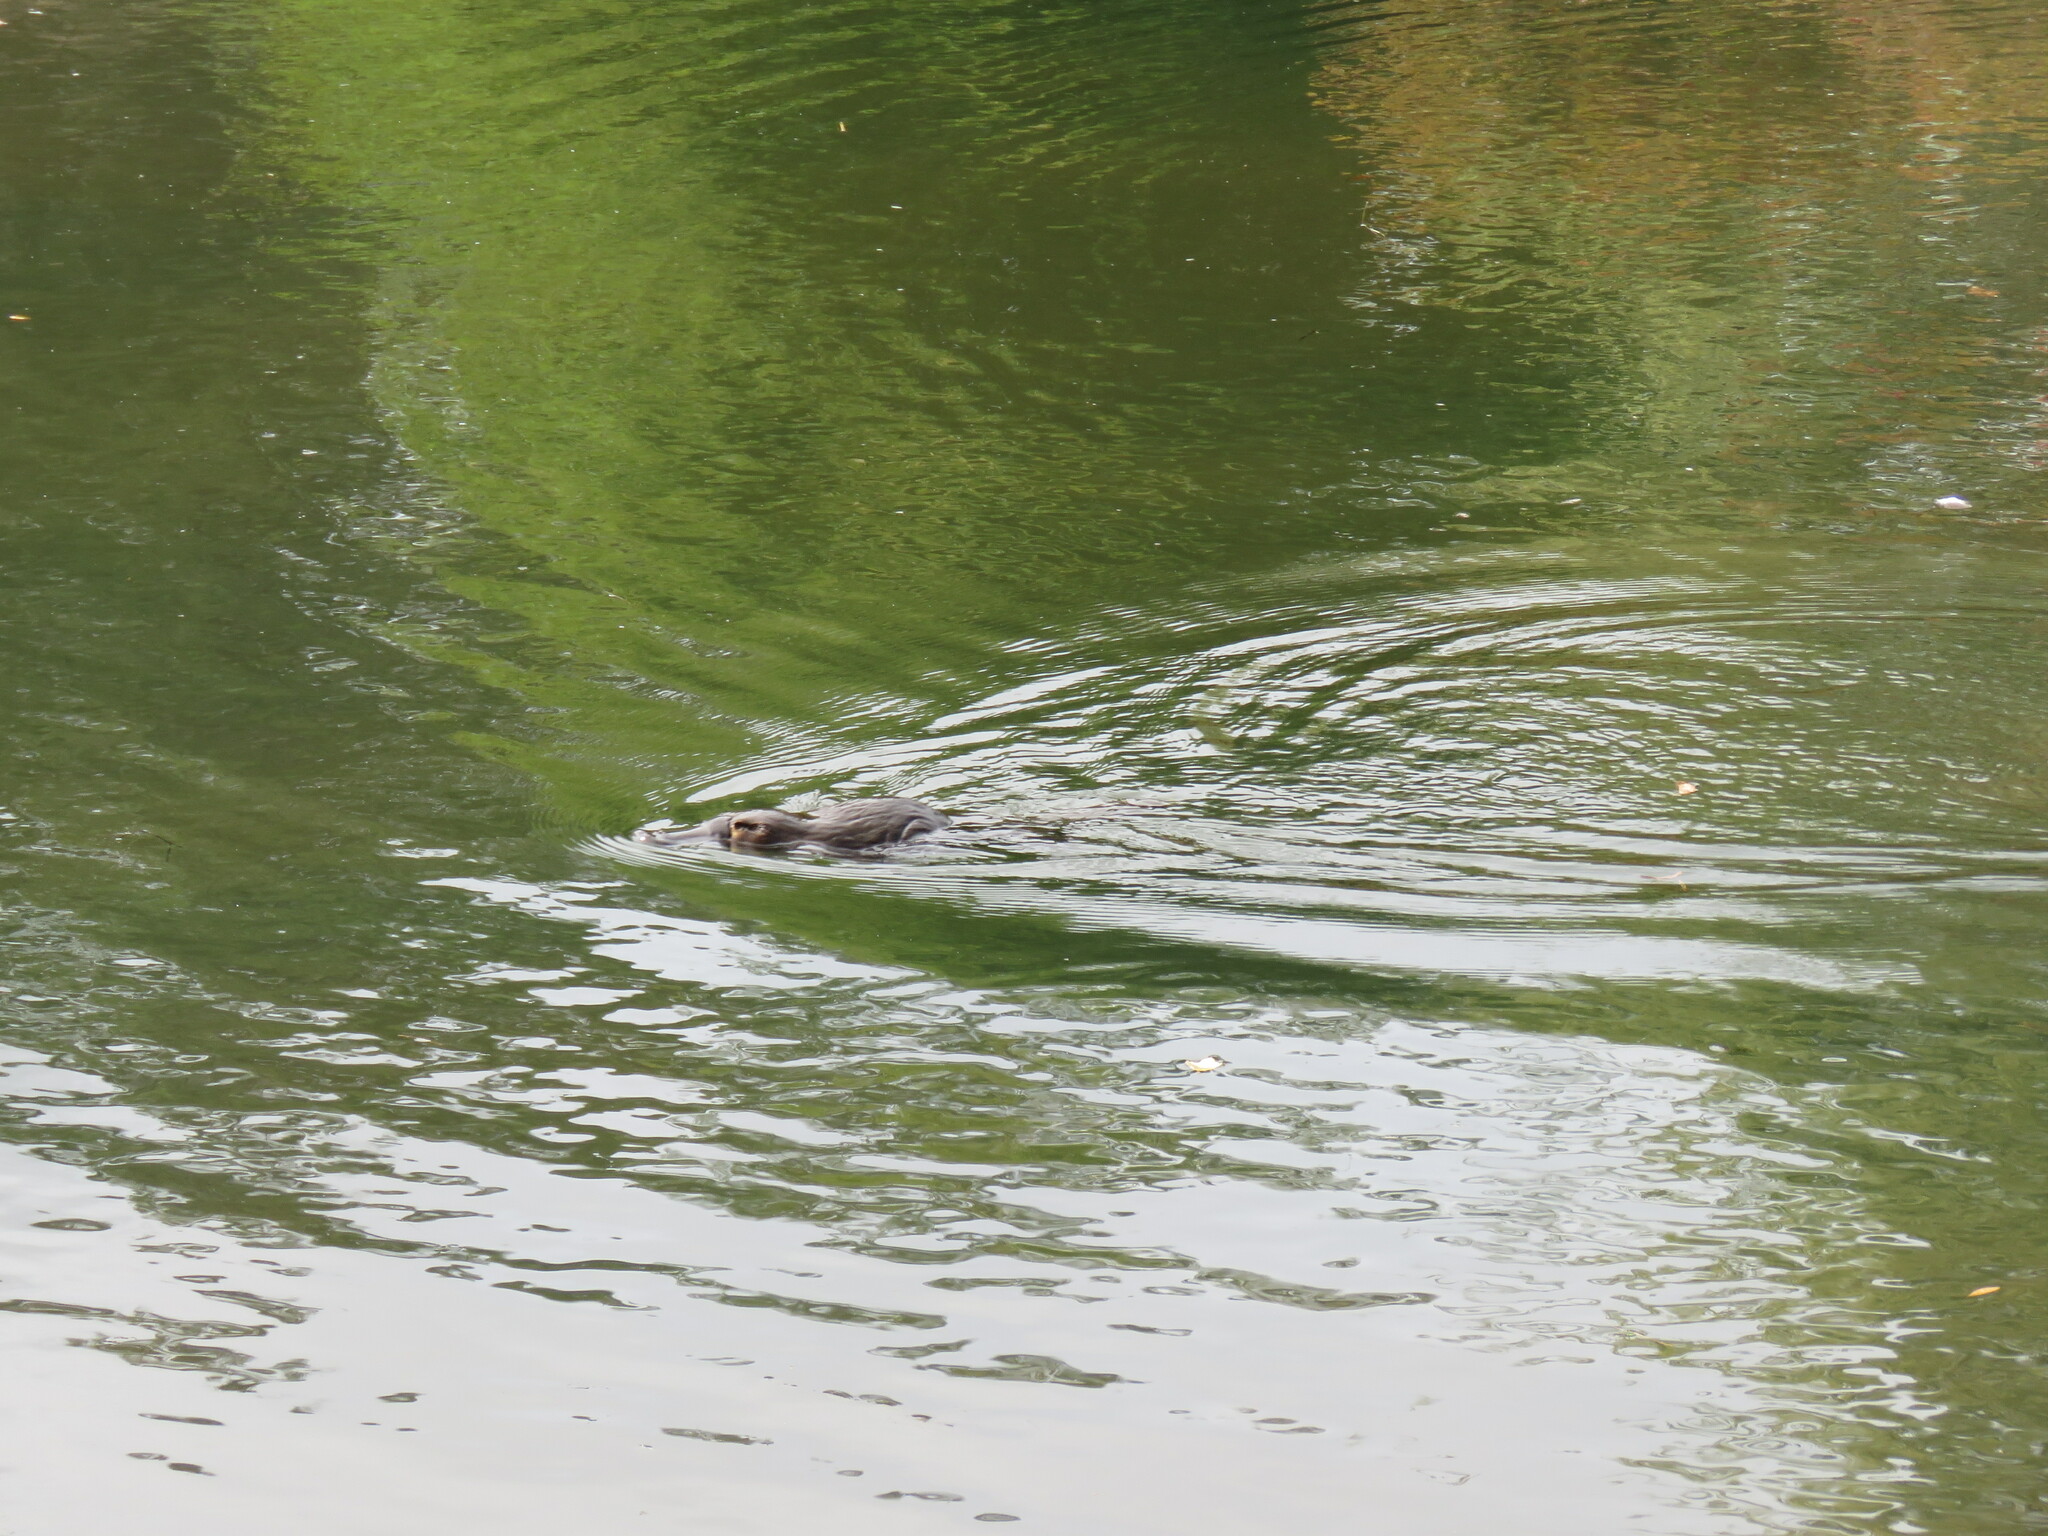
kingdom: Animalia
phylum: Chordata
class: Mammalia
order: Monotremata
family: Ornithorhynchidae
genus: Ornithorhynchus
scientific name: Ornithorhynchus anatinus
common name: Platypus
